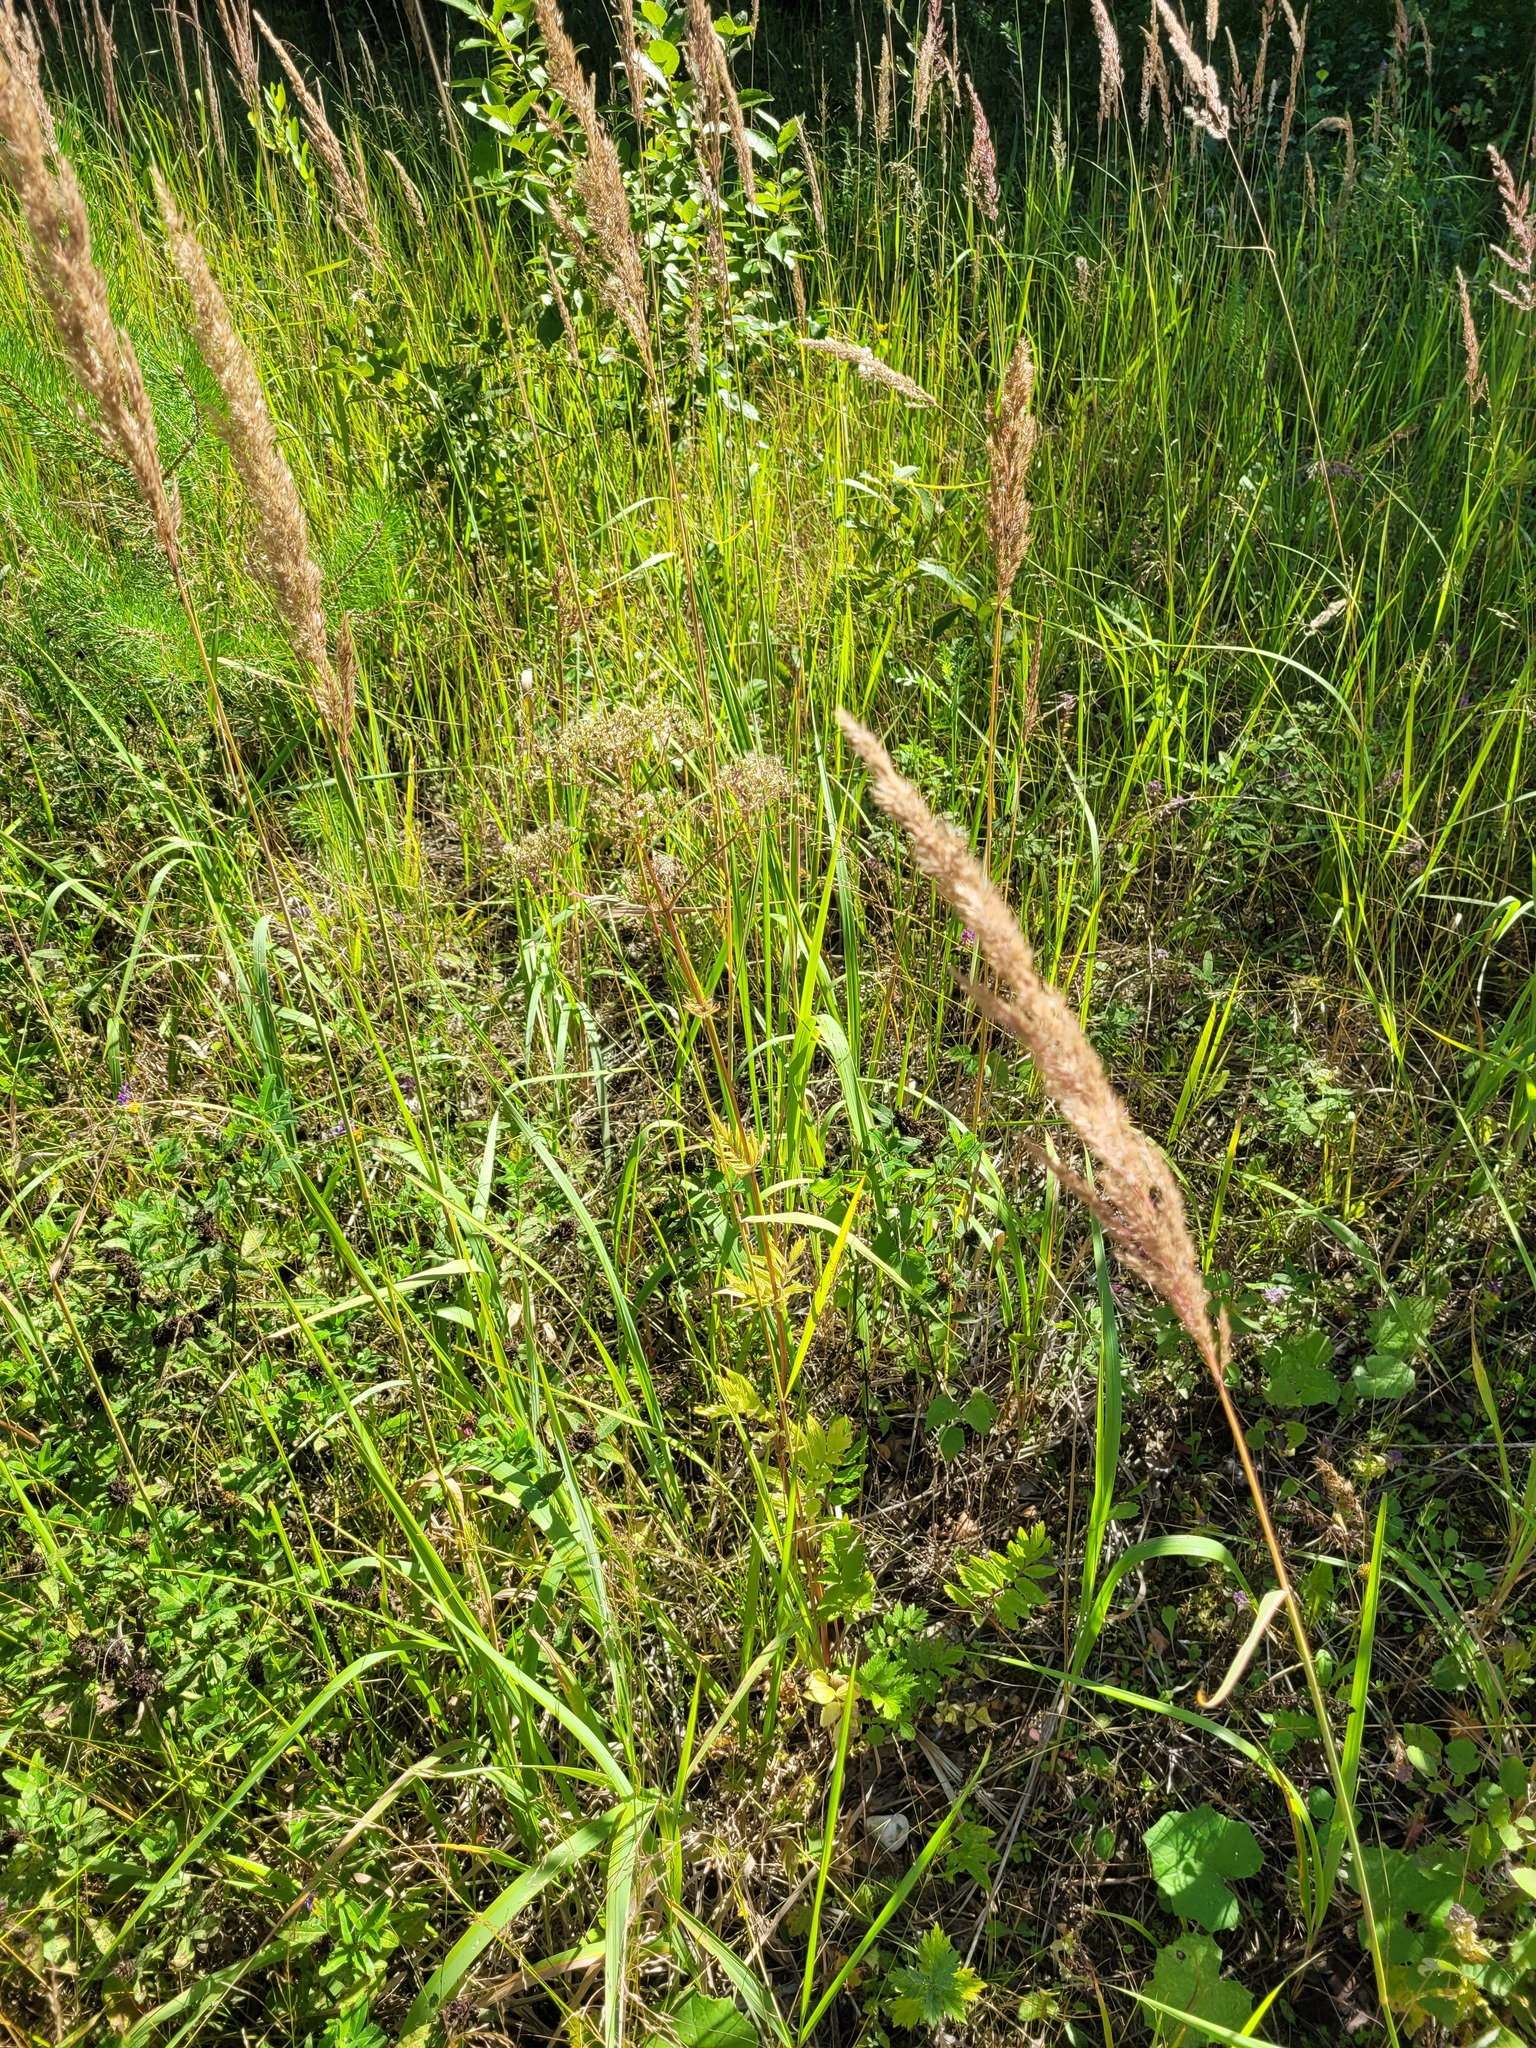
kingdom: Plantae
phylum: Tracheophyta
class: Magnoliopsida
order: Dipsacales
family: Caprifoliaceae
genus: Valeriana
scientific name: Valeriana officinalis
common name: Common valerian
